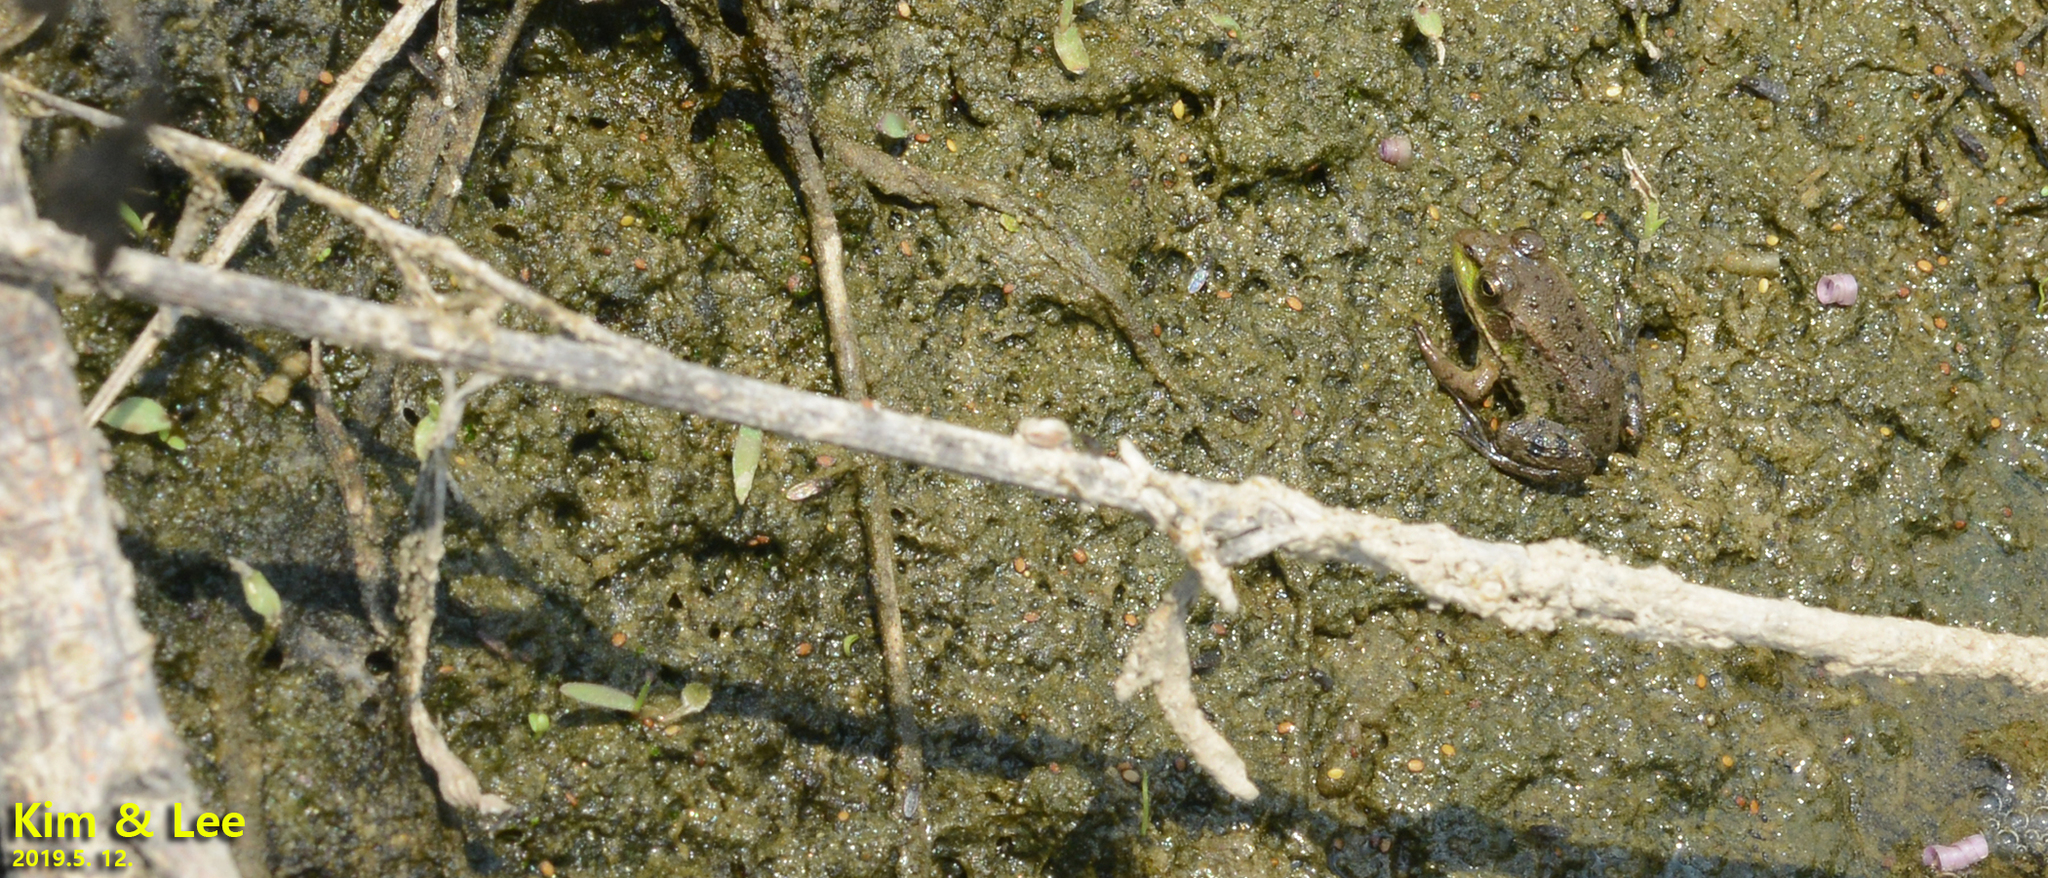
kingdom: Animalia
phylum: Chordata
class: Amphibia
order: Anura
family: Ranidae
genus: Pelophylax
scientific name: Pelophylax chosenicus
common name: Gold-spotted pond frog
